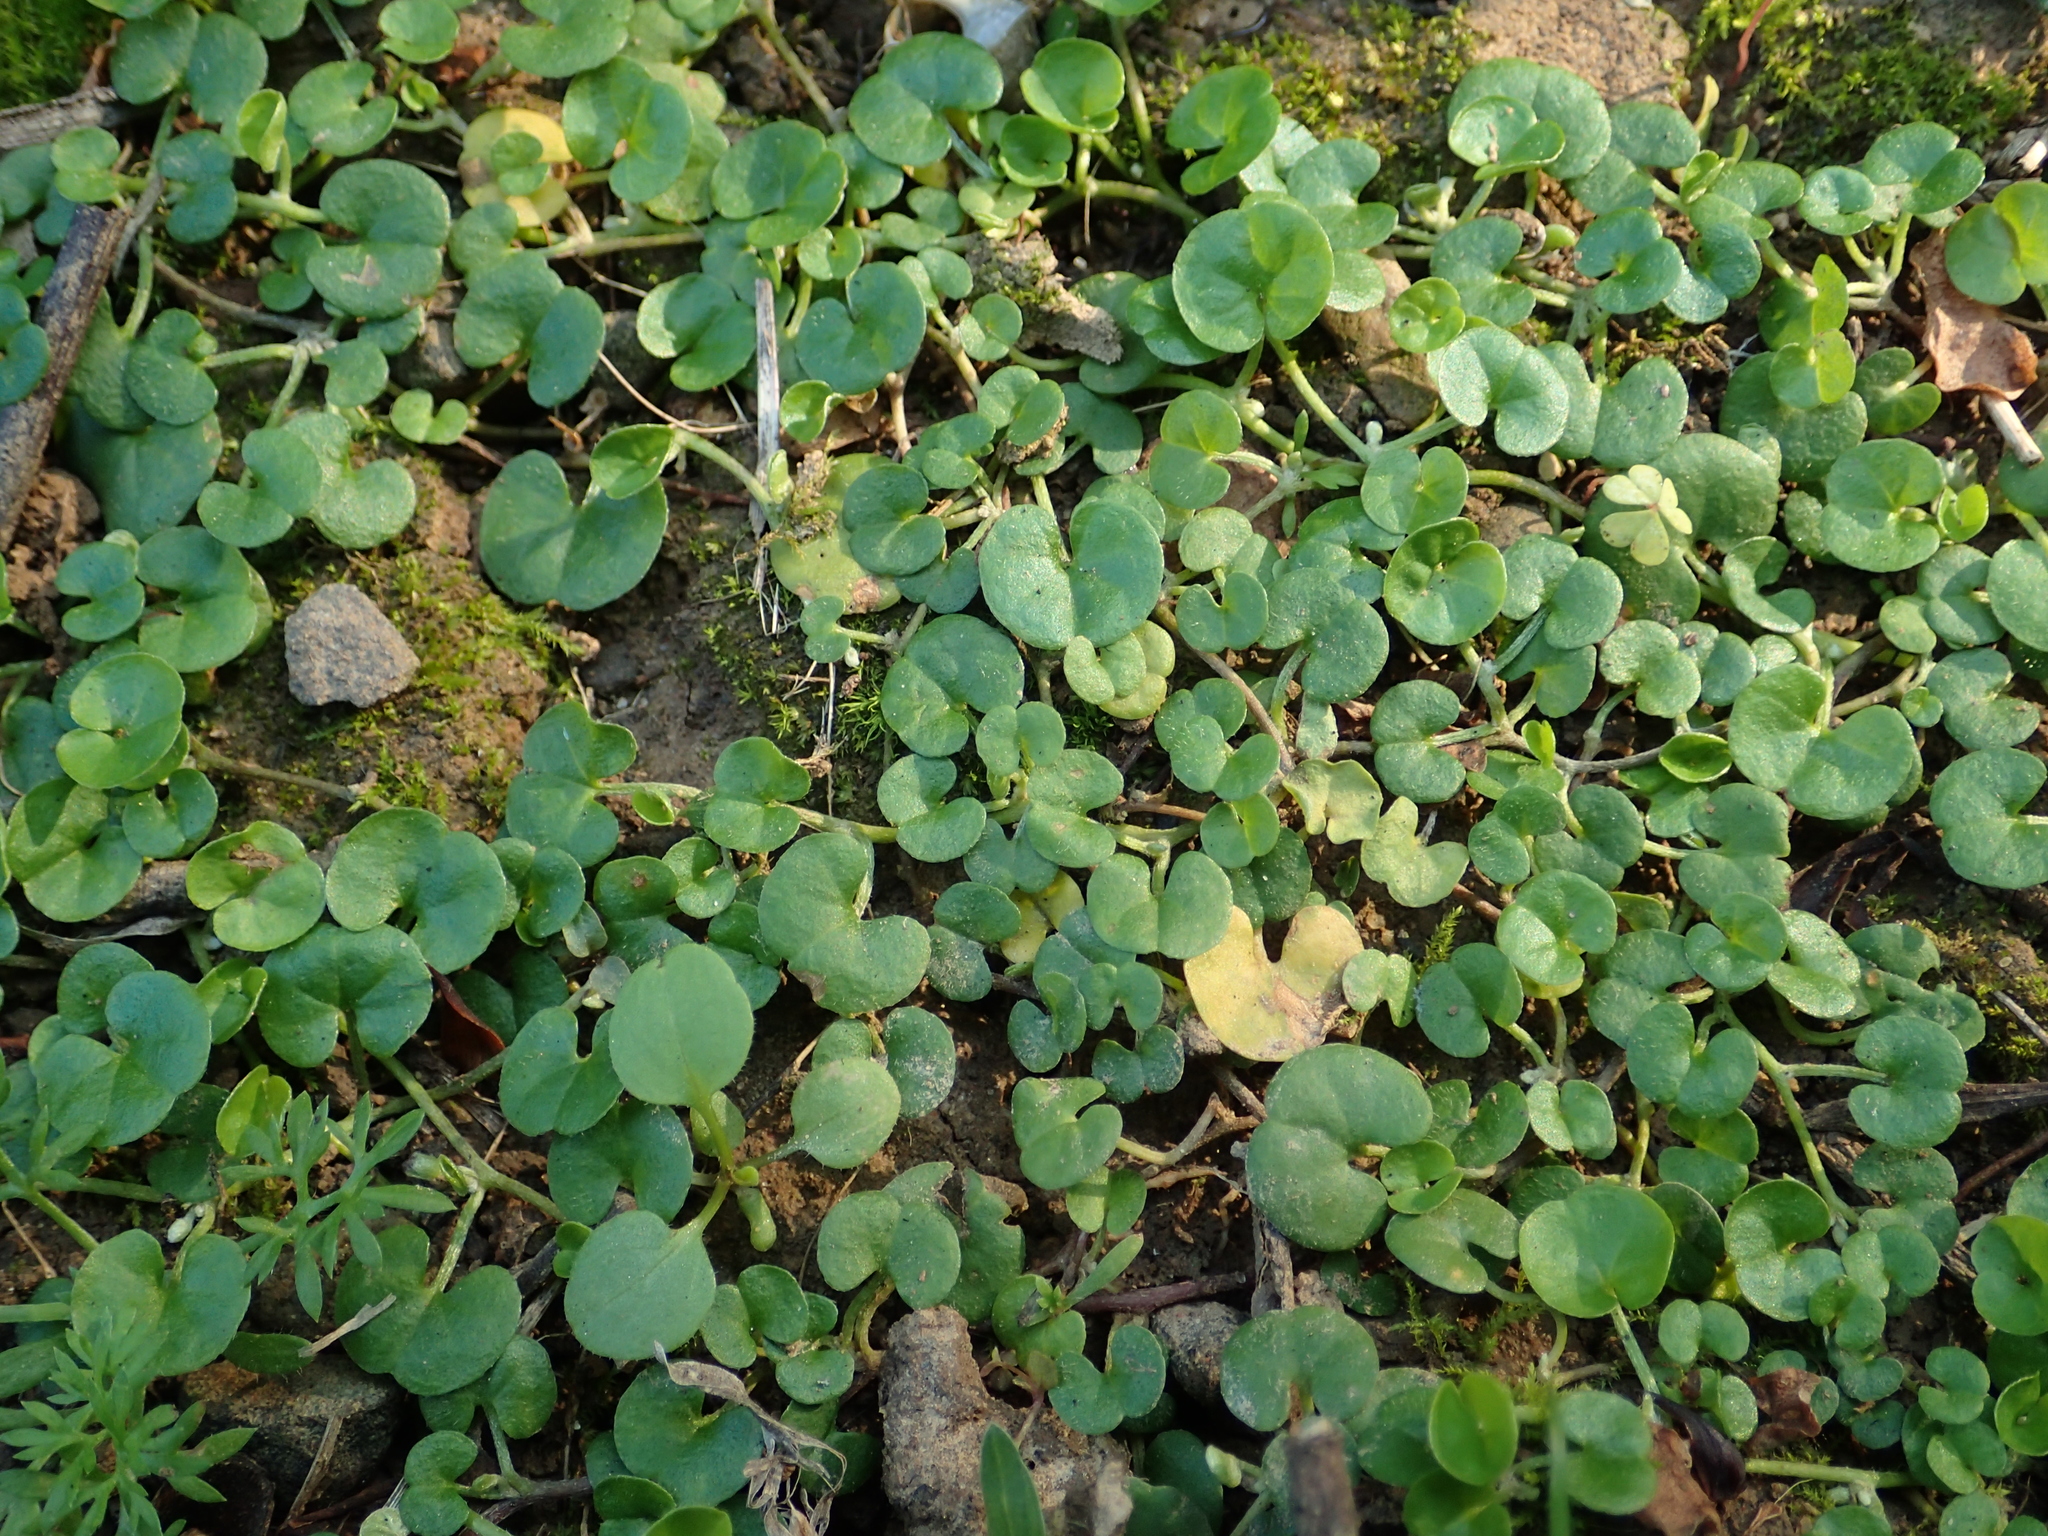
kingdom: Plantae
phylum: Tracheophyta
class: Magnoliopsida
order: Solanales
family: Convolvulaceae
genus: Dichondra
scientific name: Dichondra micrantha
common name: Kidneyweed
